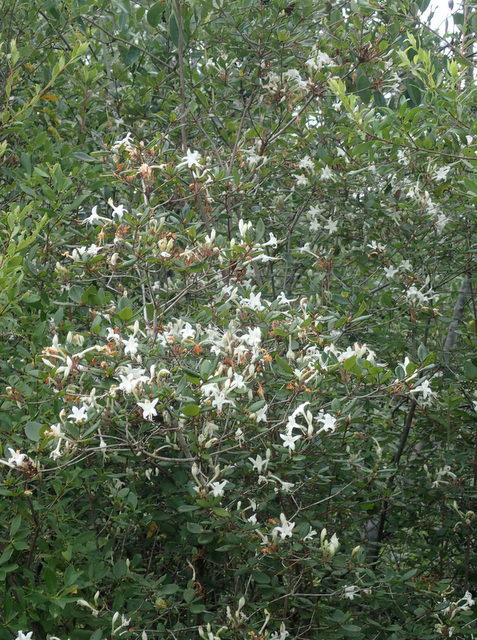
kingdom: Plantae
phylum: Tracheophyta
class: Magnoliopsida
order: Ericales
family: Ericaceae
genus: Rhododendron
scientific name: Rhododendron serrulatum
